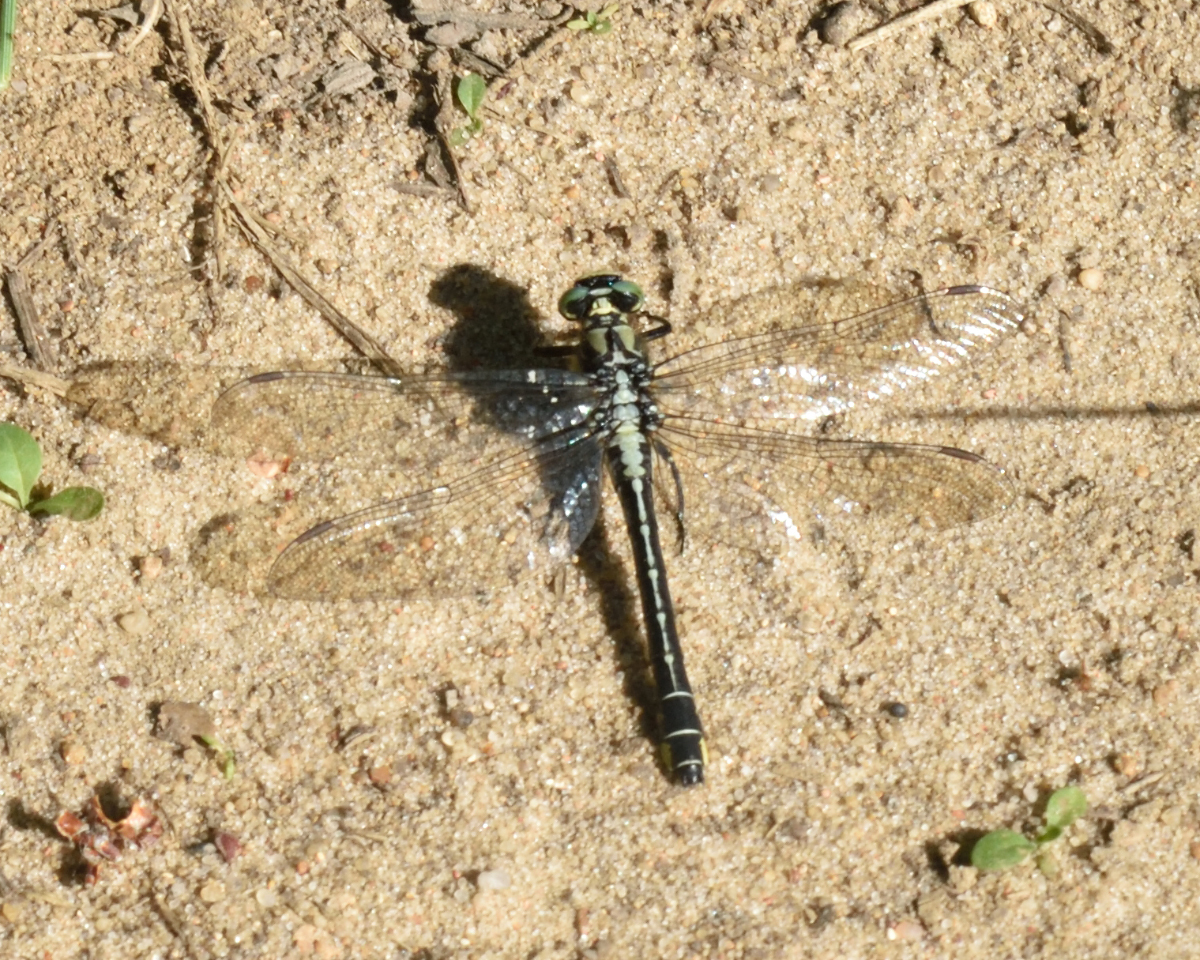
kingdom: Animalia
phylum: Arthropoda
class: Insecta
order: Odonata
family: Gomphidae
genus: Gomphus
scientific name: Gomphus vulgatissimus
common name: Club-tailed dragonfly
